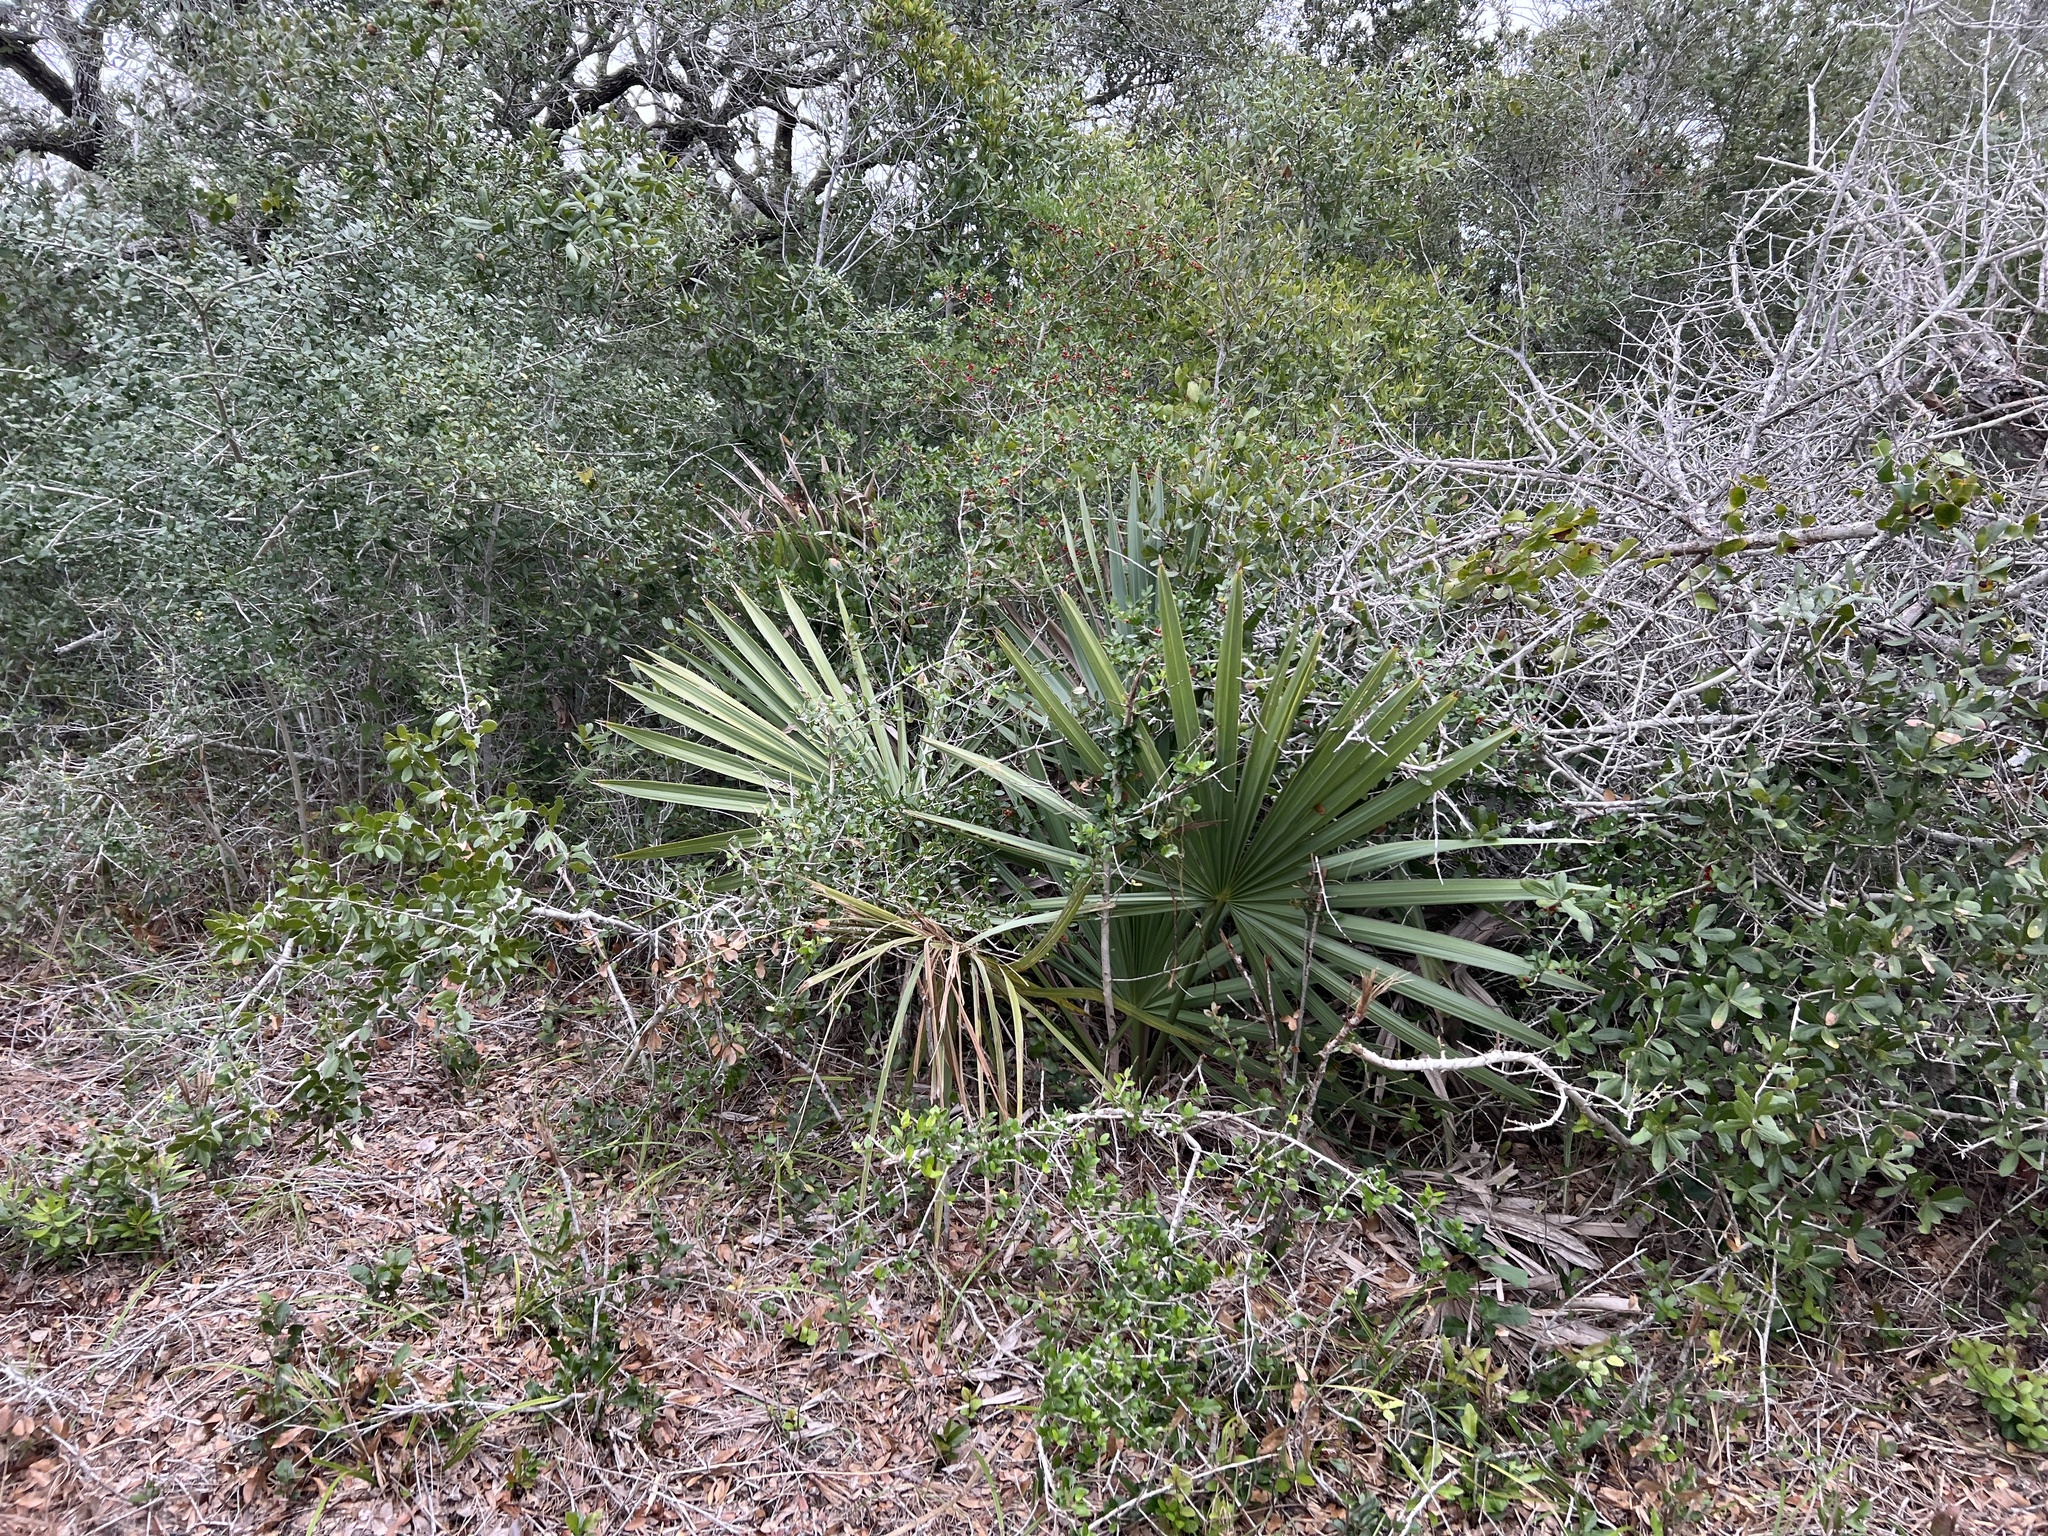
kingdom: Plantae
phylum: Tracheophyta
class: Liliopsida
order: Arecales
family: Arecaceae
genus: Sabal
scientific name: Sabal minor
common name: Dwarf palmetto
